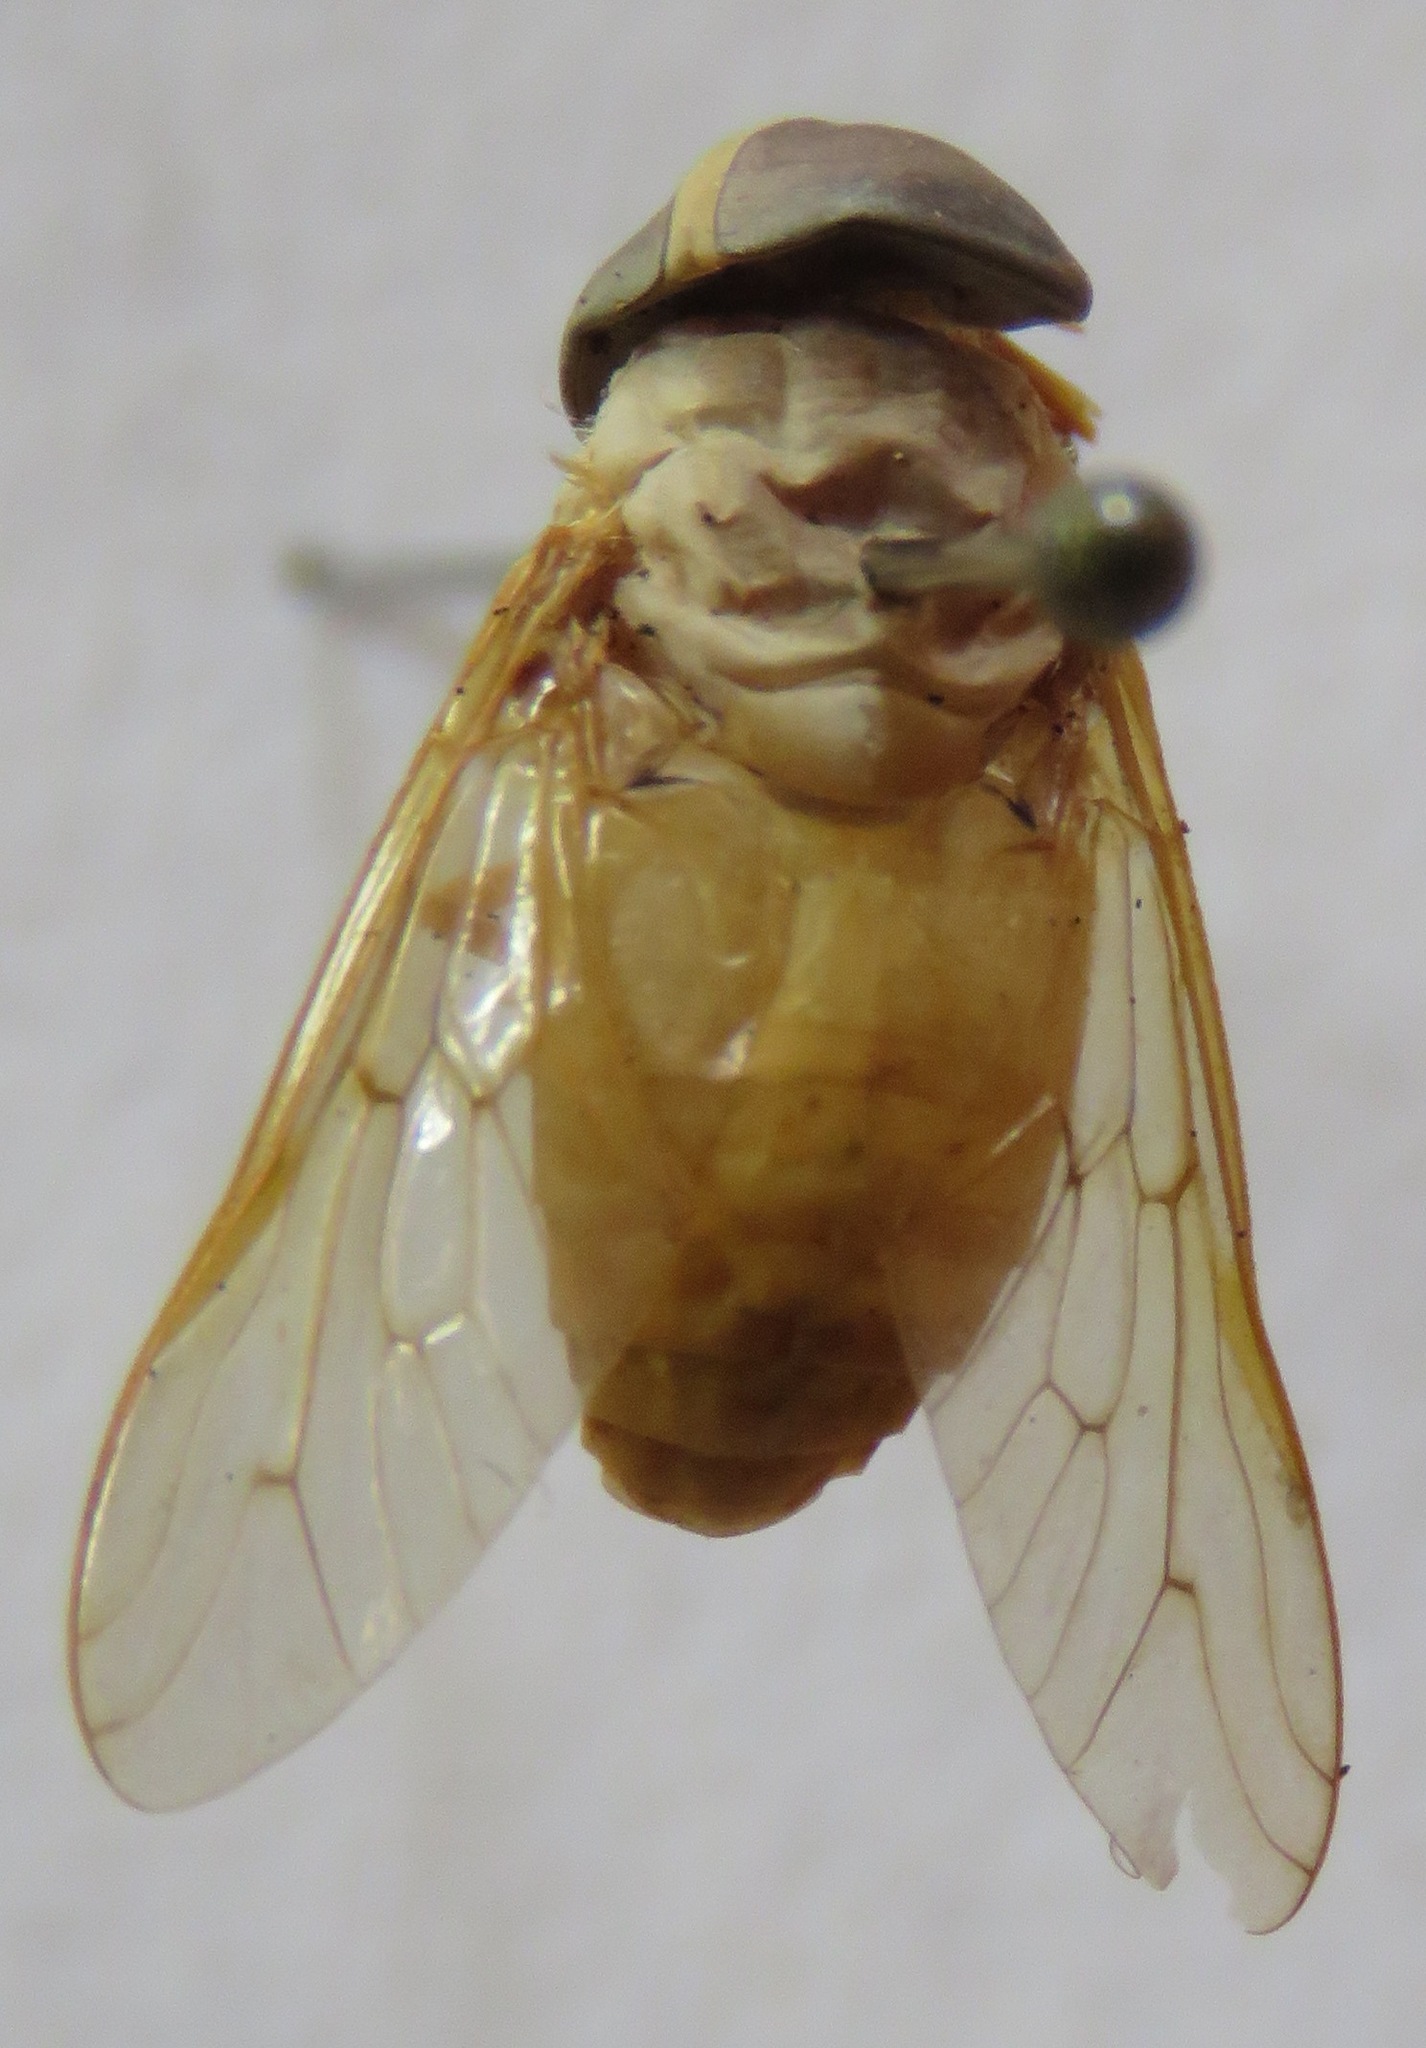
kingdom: Animalia
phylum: Arthropoda
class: Insecta
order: Diptera
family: Tabanidae
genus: Chlorotabanus
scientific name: Chlorotabanus inanis
